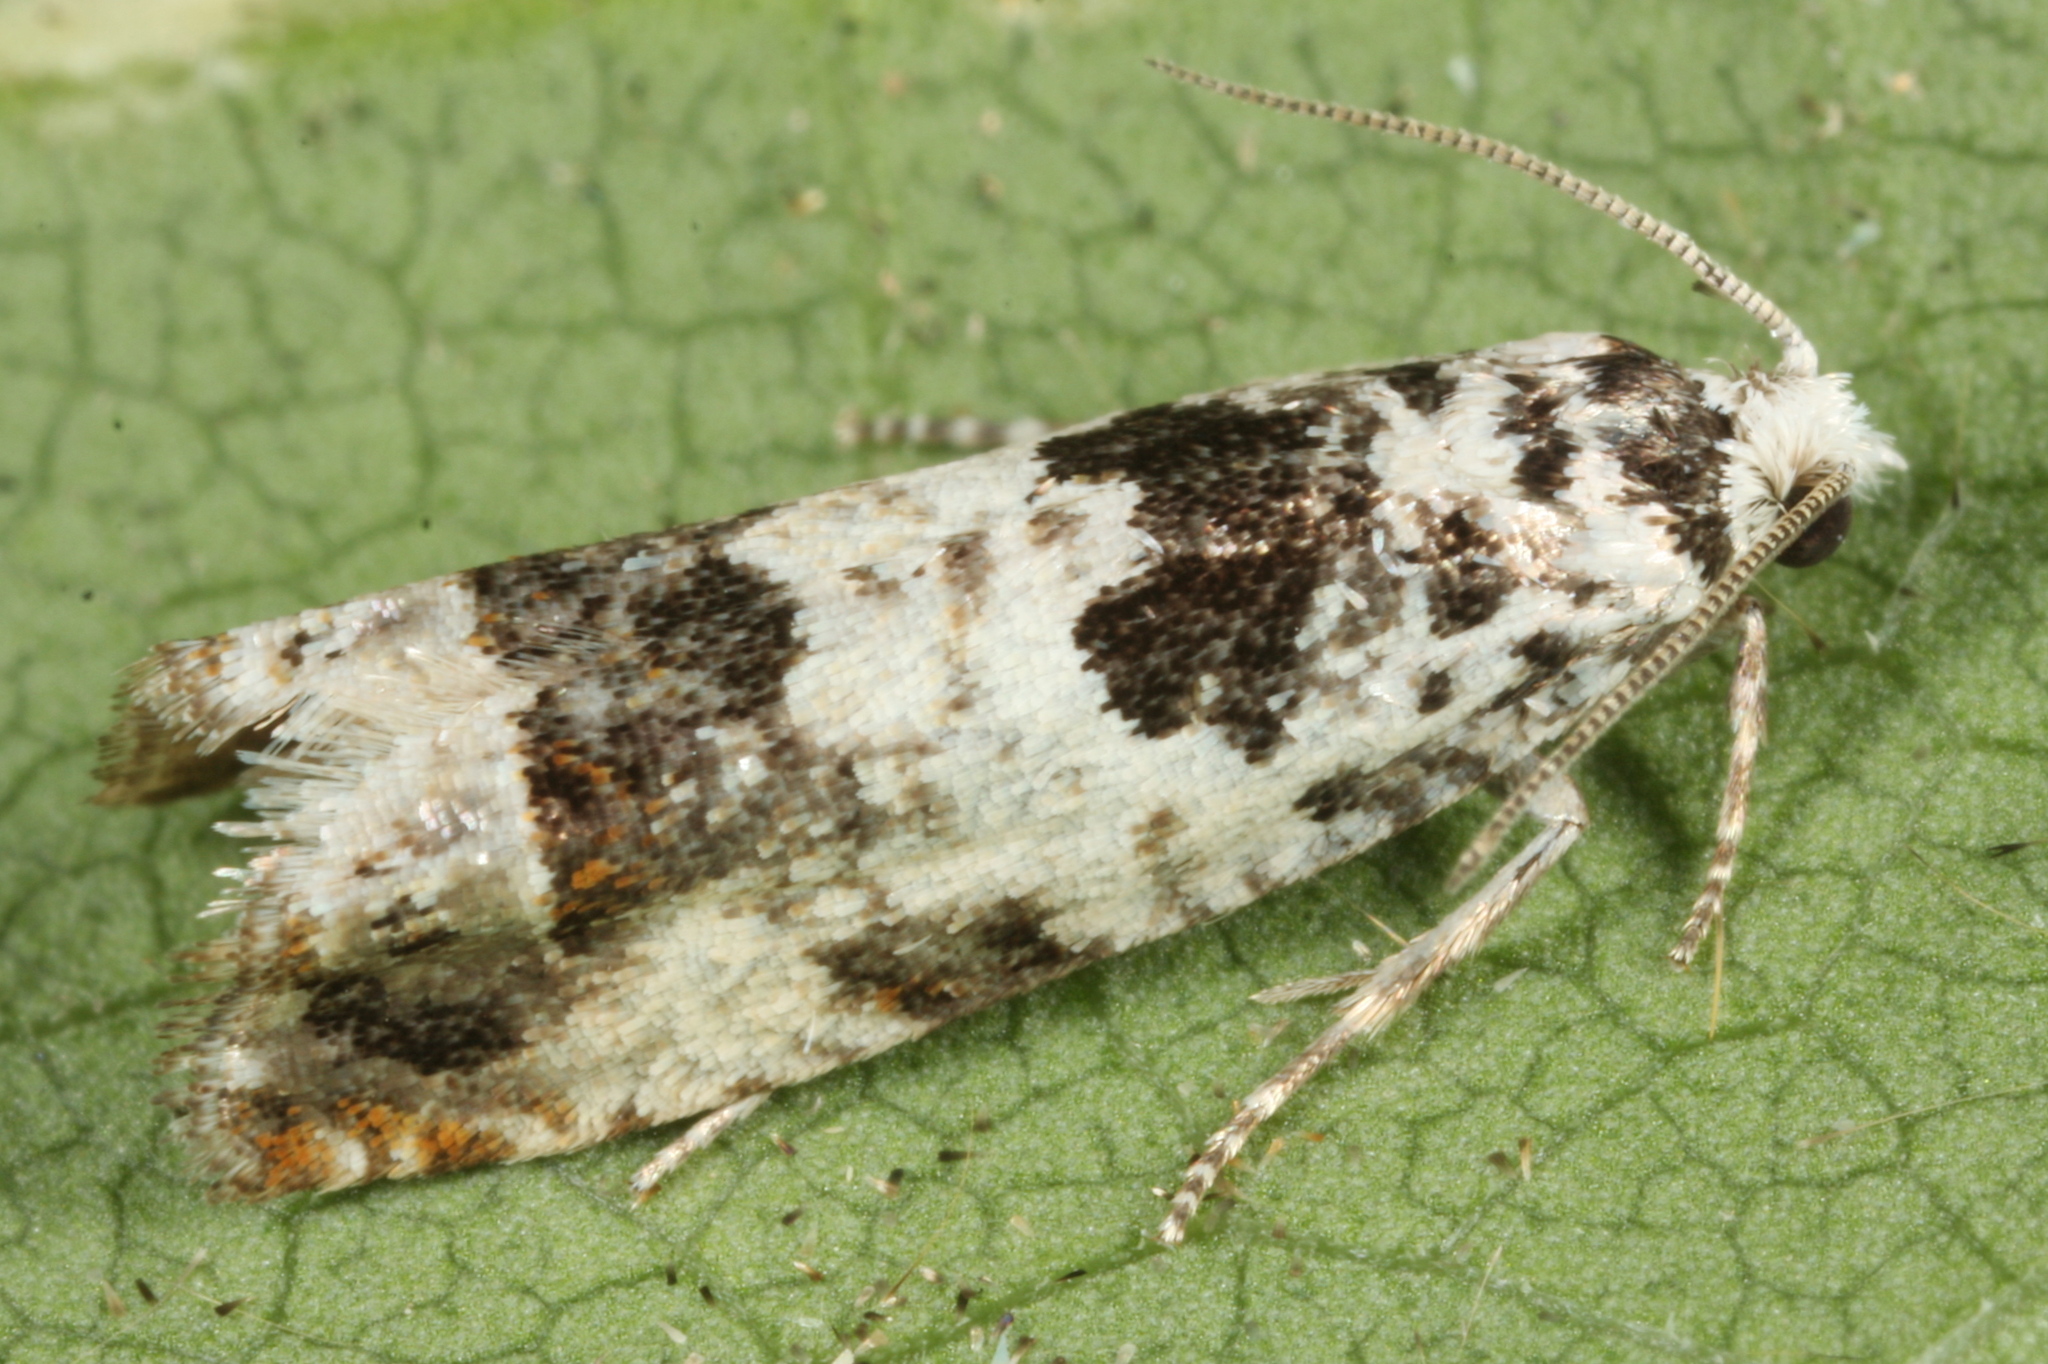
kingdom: Animalia
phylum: Arthropoda
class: Insecta
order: Lepidoptera
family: Tortricidae
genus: Eucosma
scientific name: Eucosma campoliliana
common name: Marbled bell
